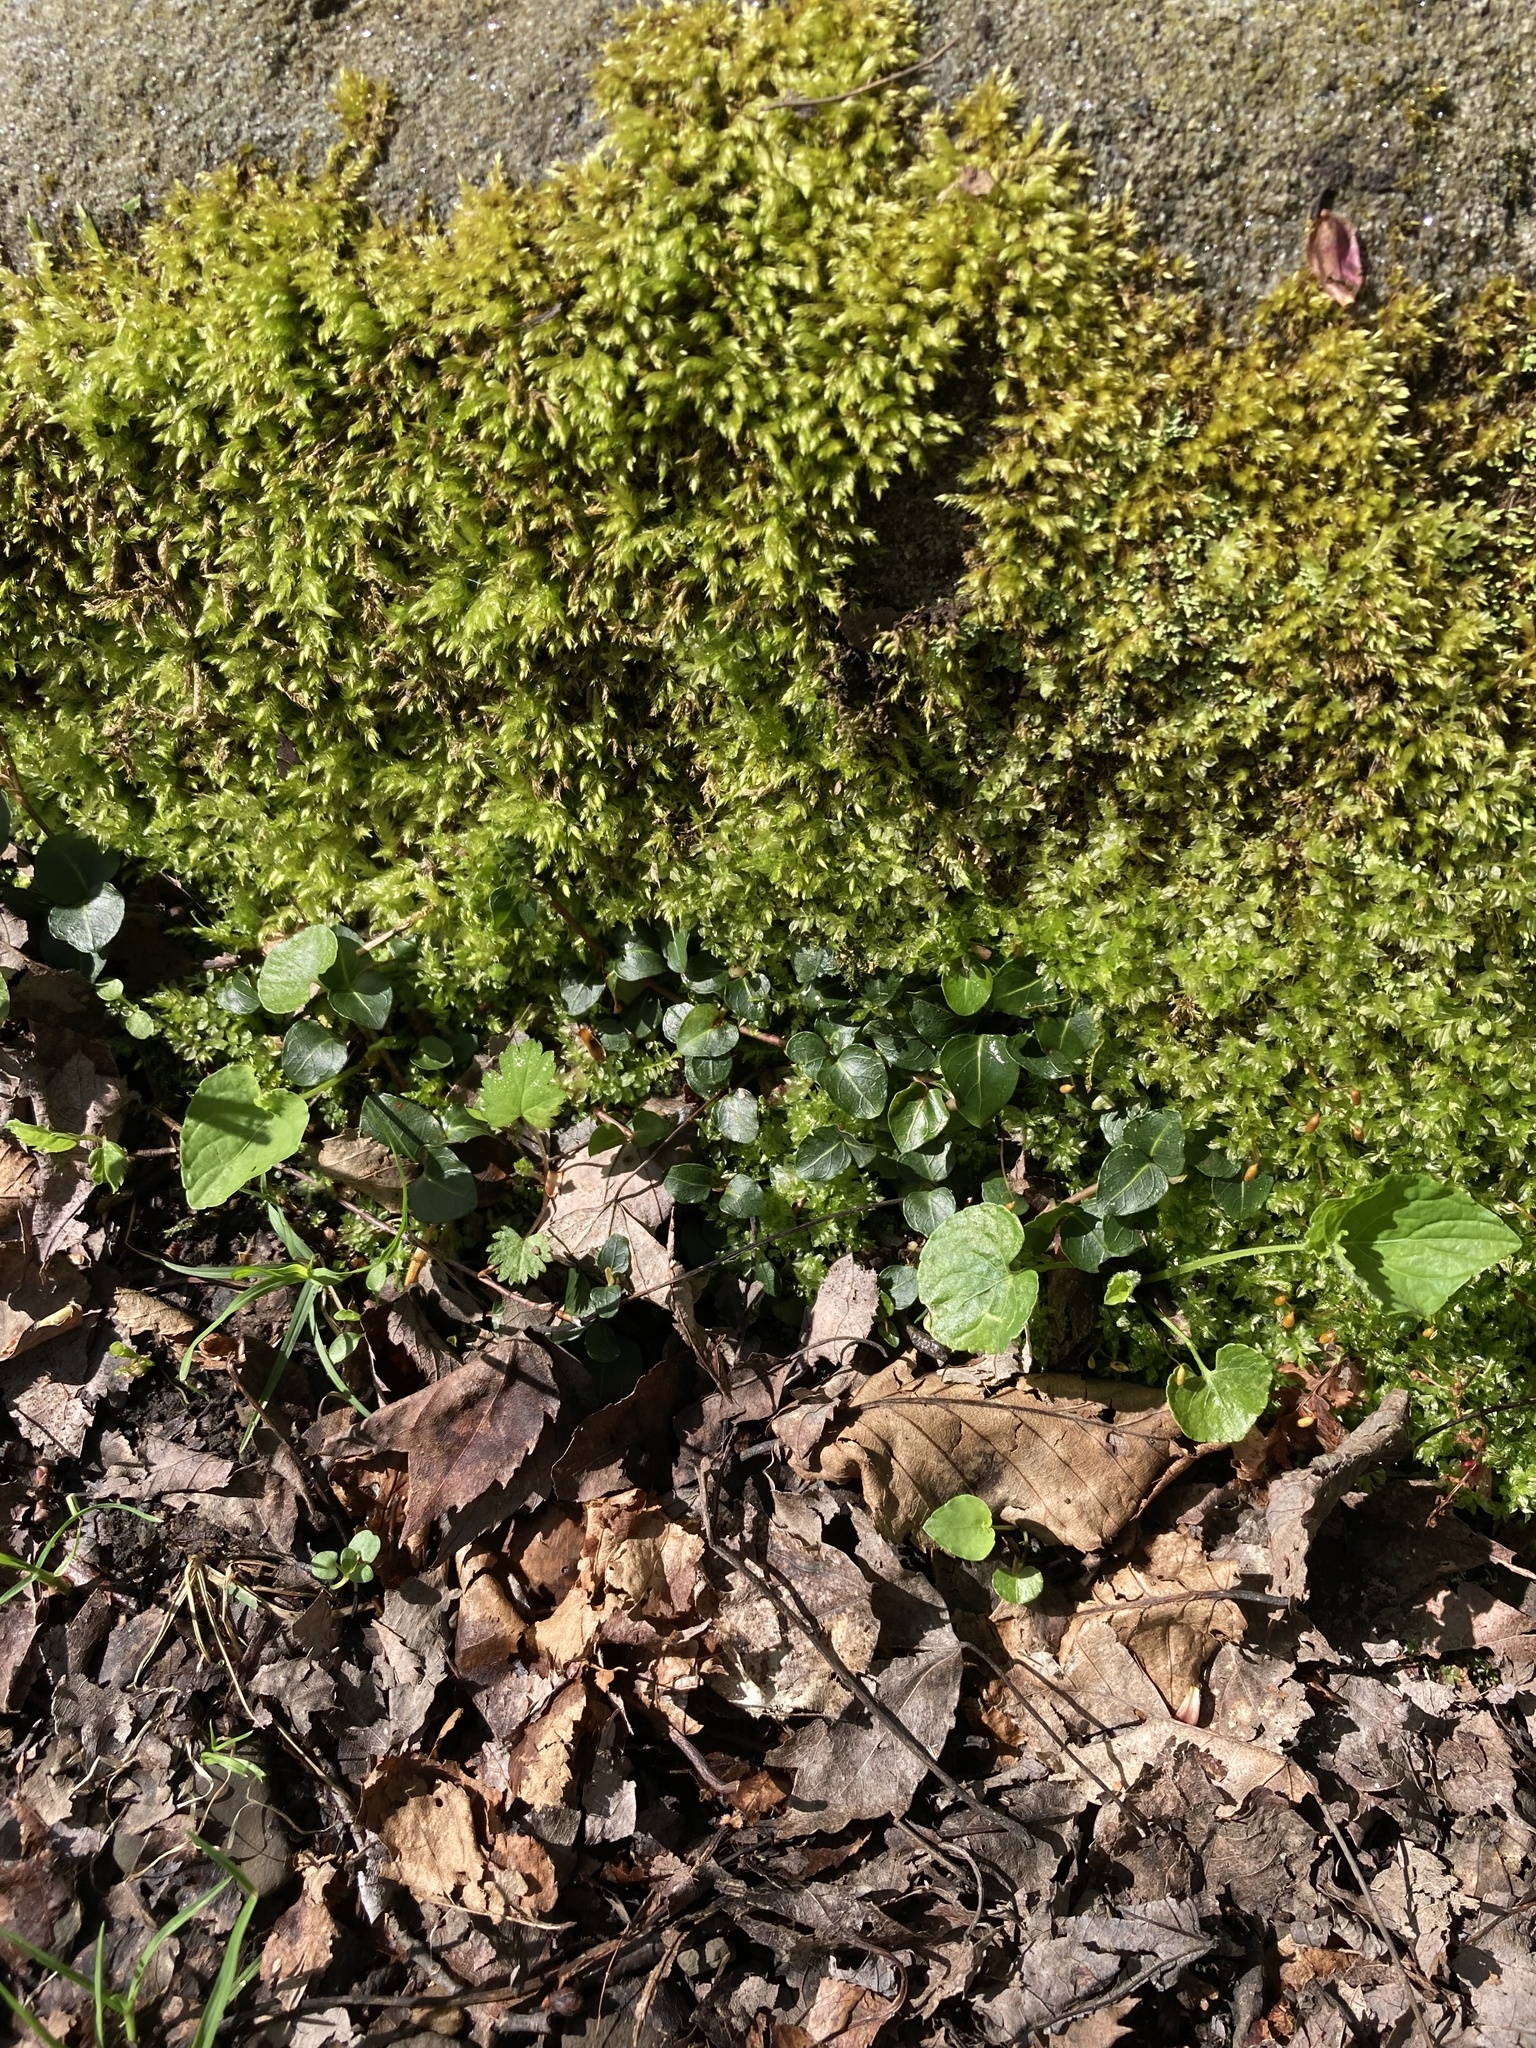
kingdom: Plantae
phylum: Tracheophyta
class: Magnoliopsida
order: Gentianales
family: Rubiaceae
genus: Mitchella
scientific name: Mitchella repens
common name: Partridge-berry
